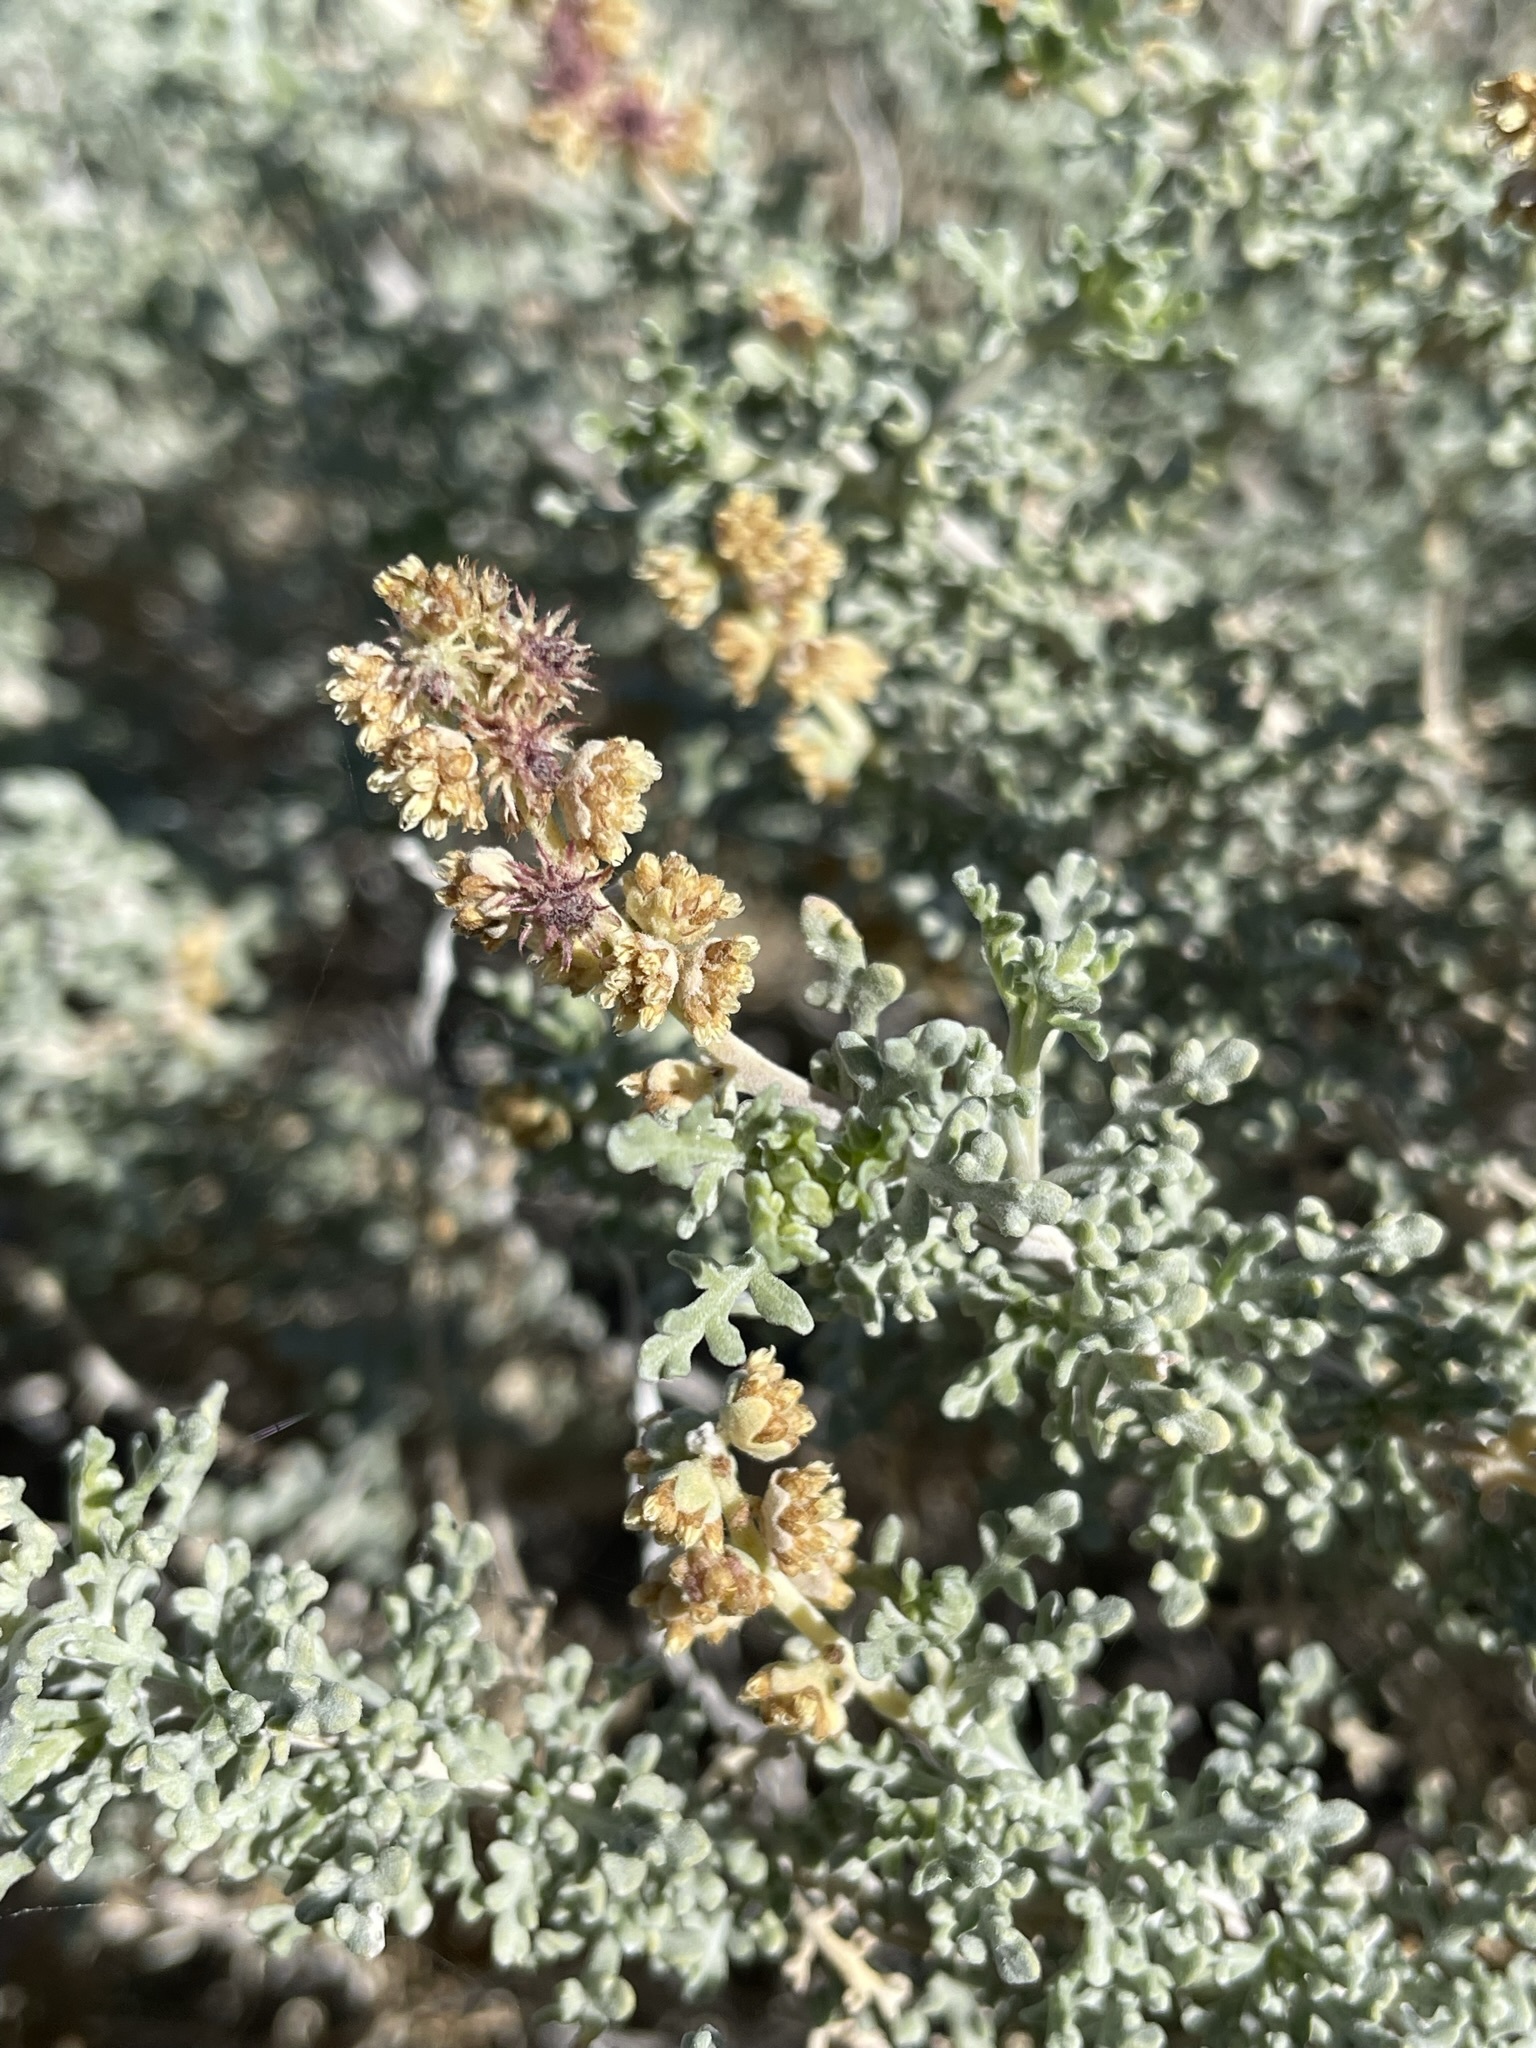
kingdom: Plantae
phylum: Tracheophyta
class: Magnoliopsida
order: Asterales
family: Asteraceae
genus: Ambrosia
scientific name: Ambrosia dumosa
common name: Bur-sage
